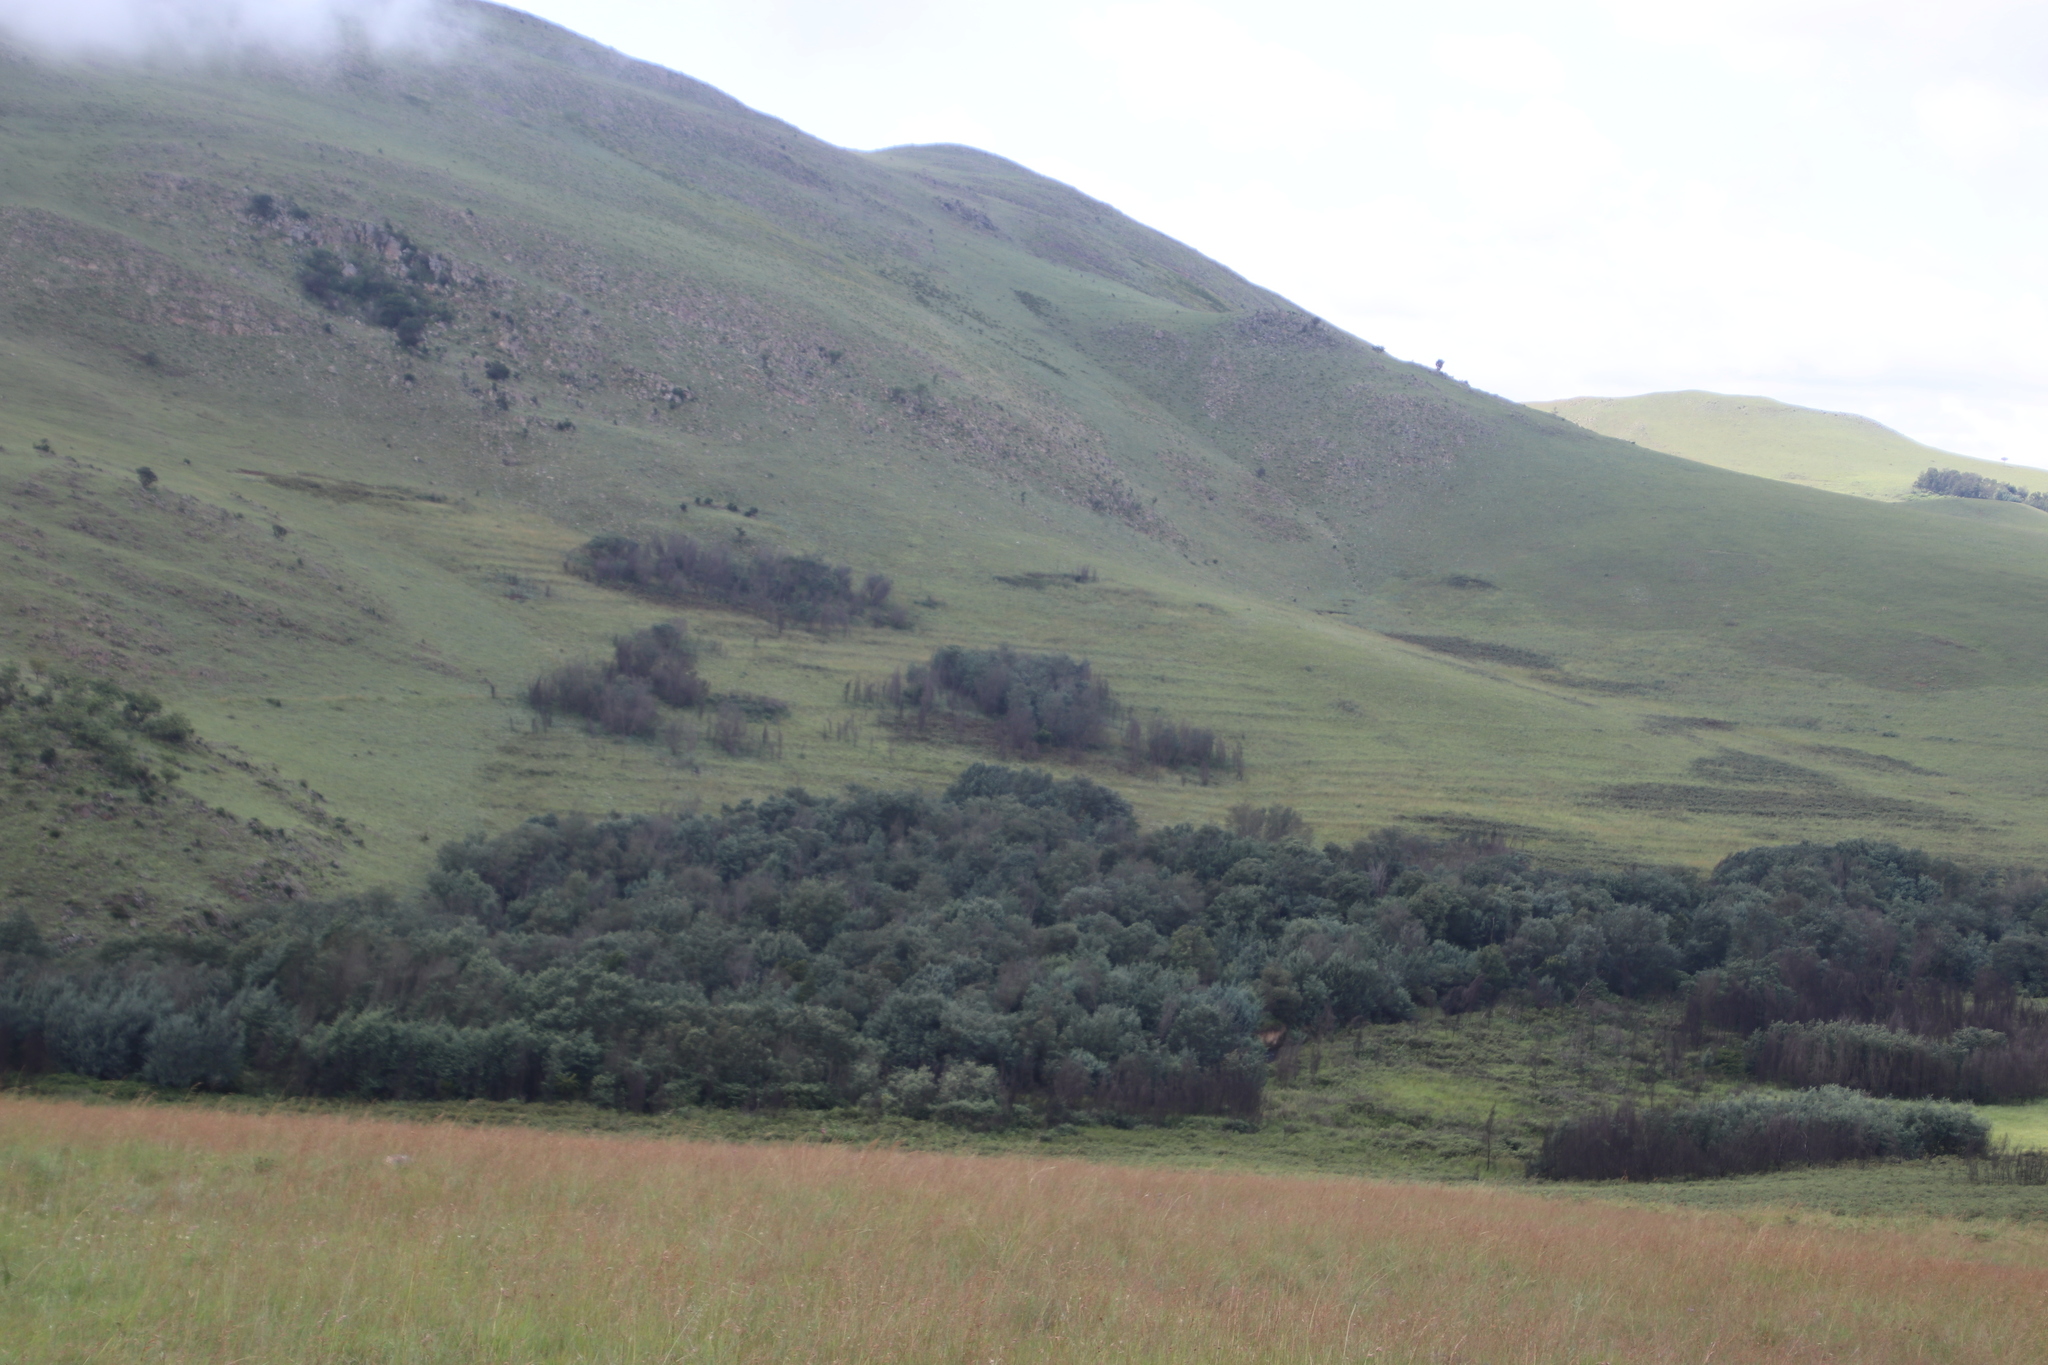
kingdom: Plantae
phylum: Tracheophyta
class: Magnoliopsida
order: Fabales
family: Fabaceae
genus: Acacia
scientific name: Acacia dealbata
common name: Silver wattle
